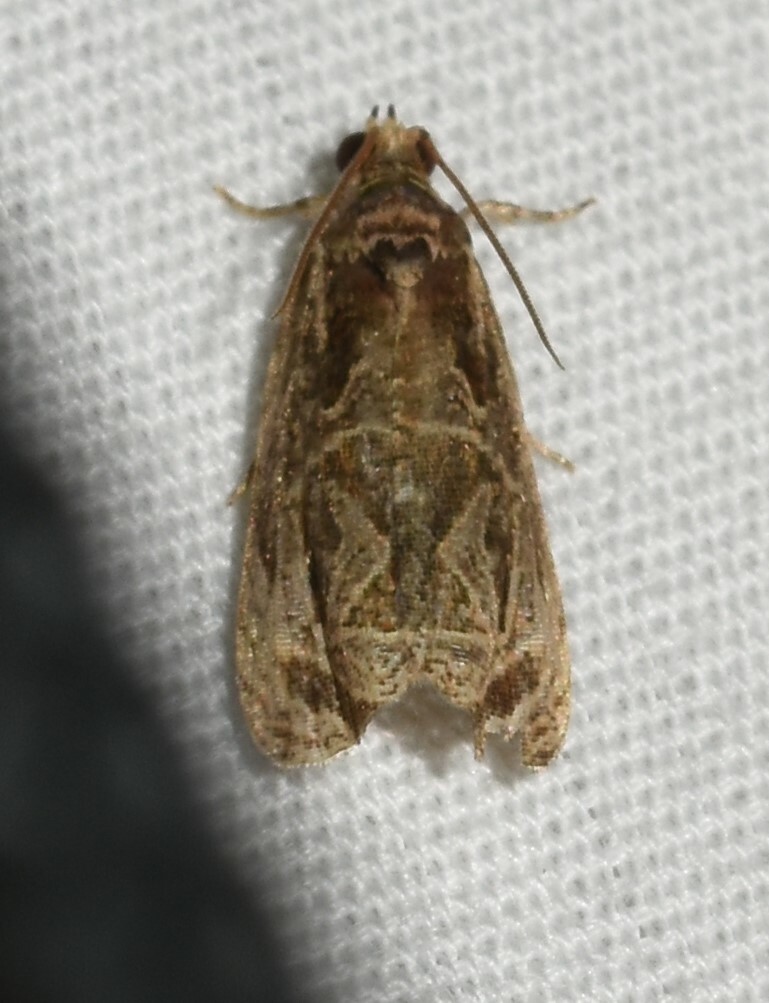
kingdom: Animalia
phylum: Arthropoda
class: Insecta
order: Lepidoptera
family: Tortricidae
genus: Olethreutes
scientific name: Olethreutes concinnana
